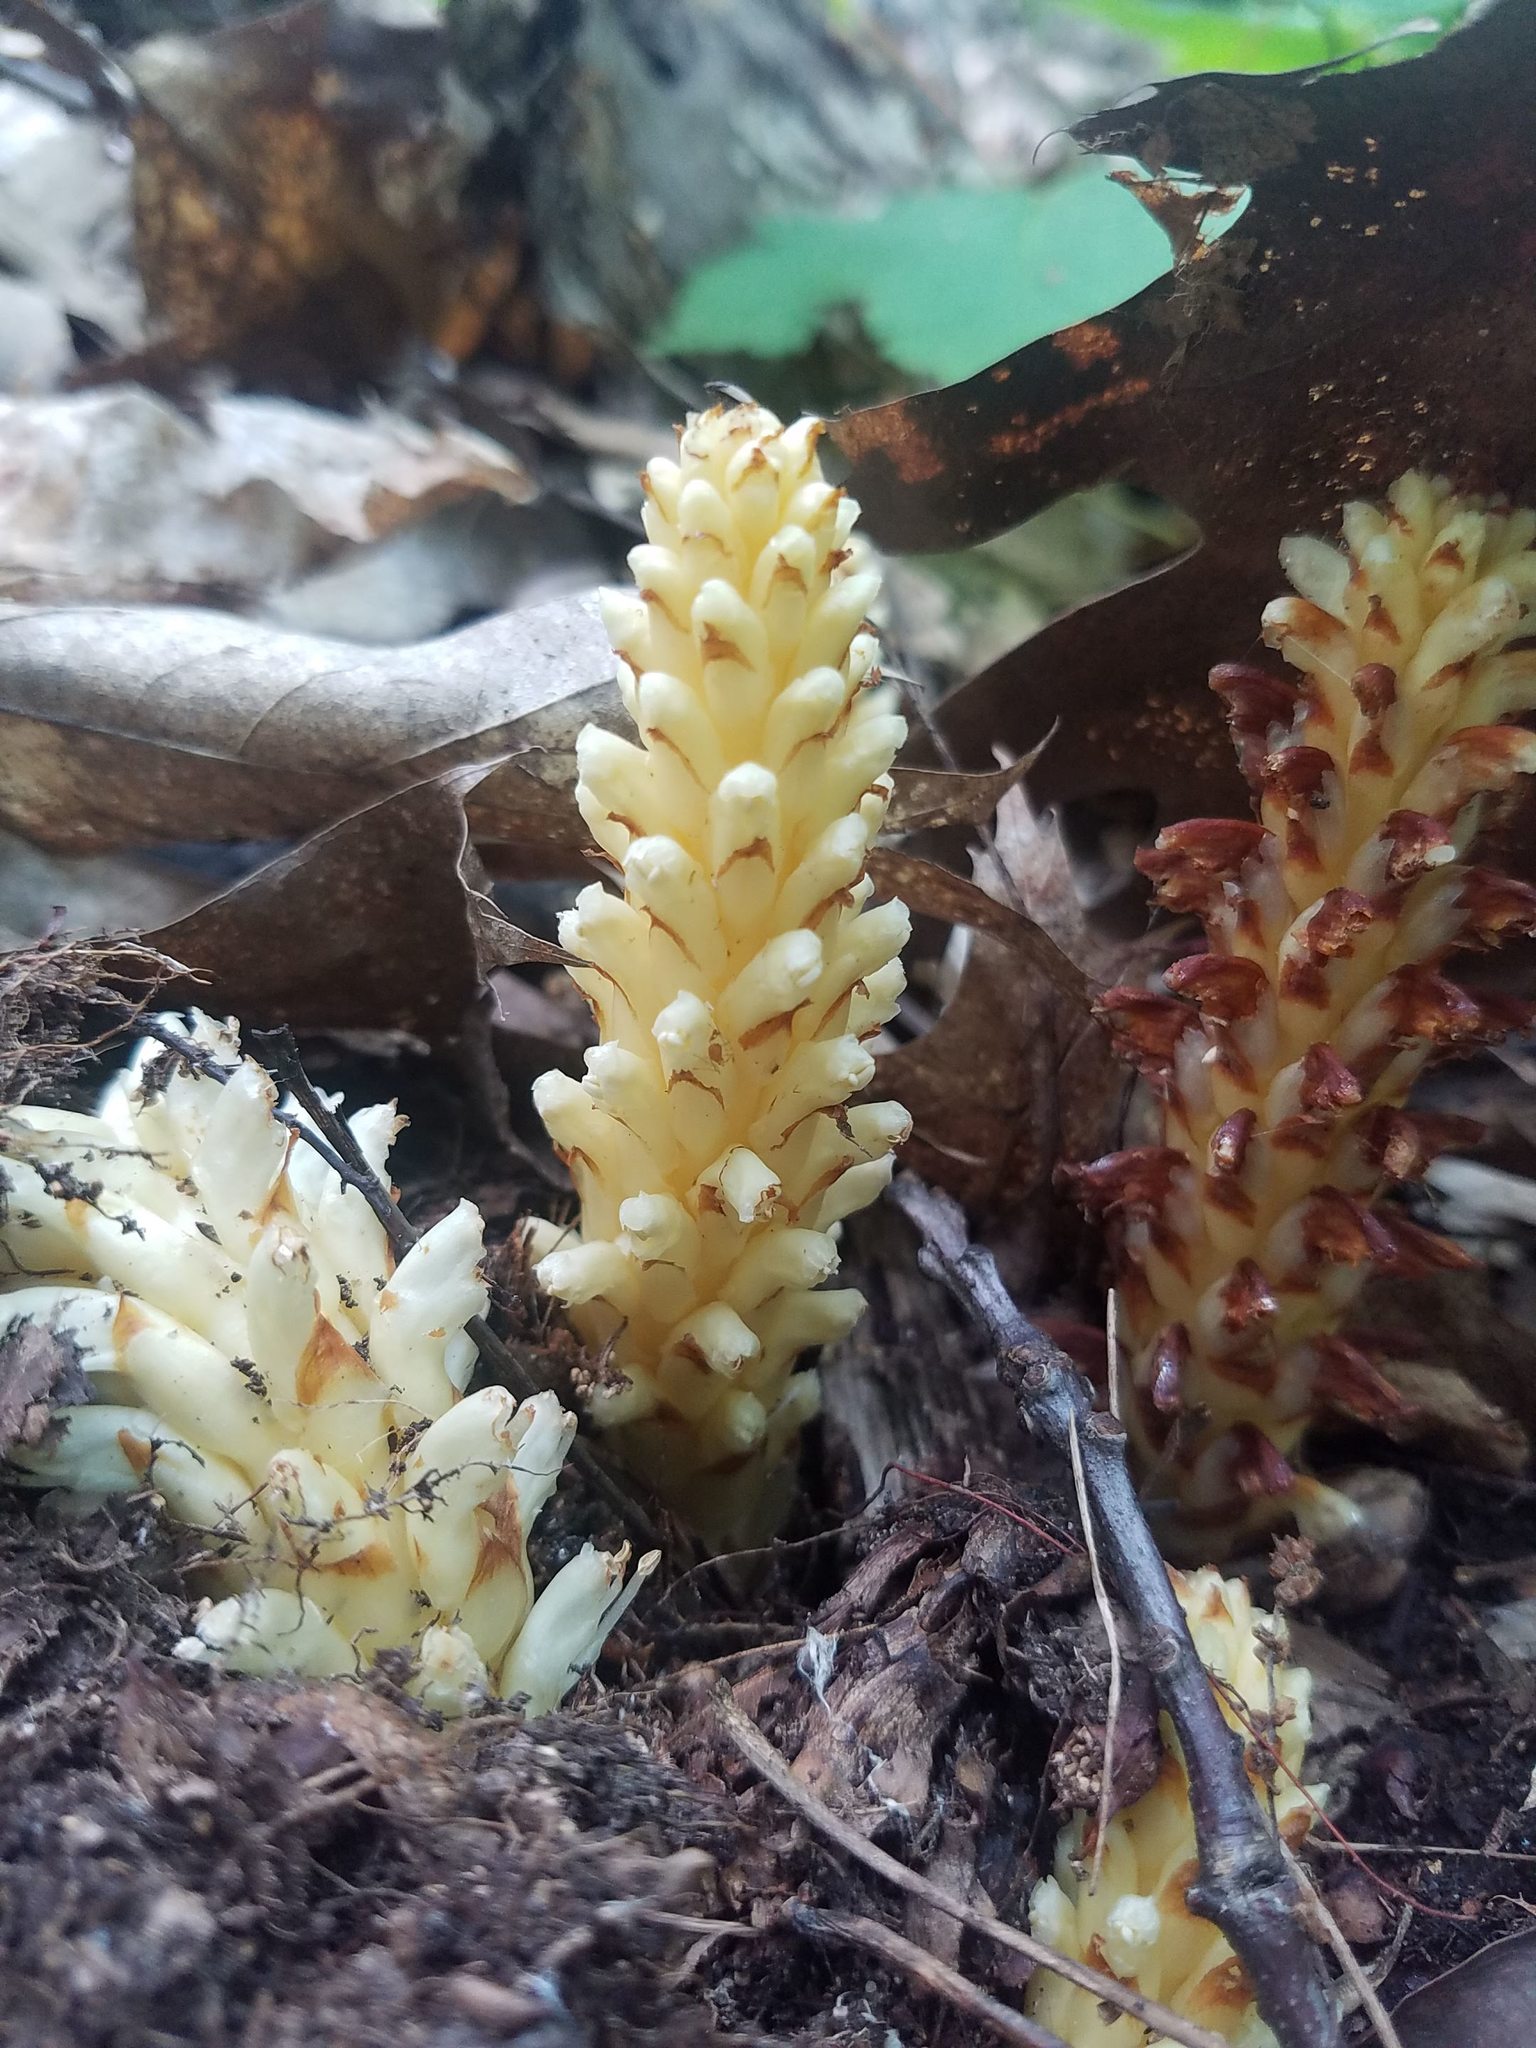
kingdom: Plantae
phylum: Tracheophyta
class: Magnoliopsida
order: Lamiales
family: Orobanchaceae
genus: Conopholis
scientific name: Conopholis americana
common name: American cancer-root
